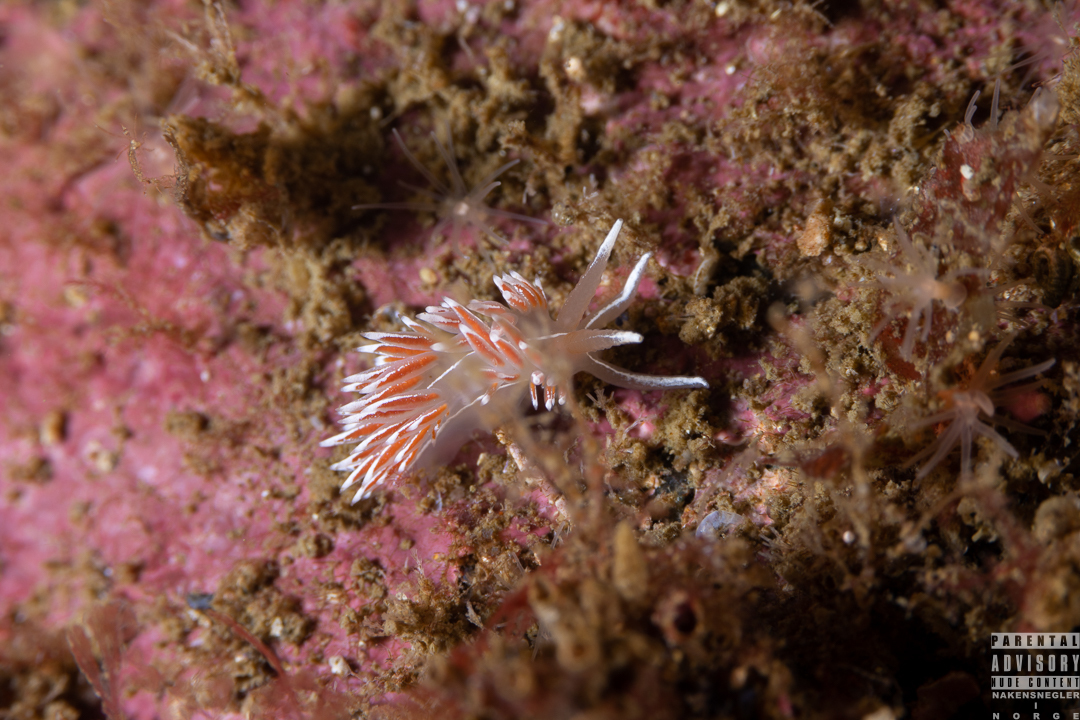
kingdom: Animalia
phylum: Mollusca
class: Gastropoda
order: Nudibranchia
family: Coryphellidae
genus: Coryphella
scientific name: Coryphella lineata
